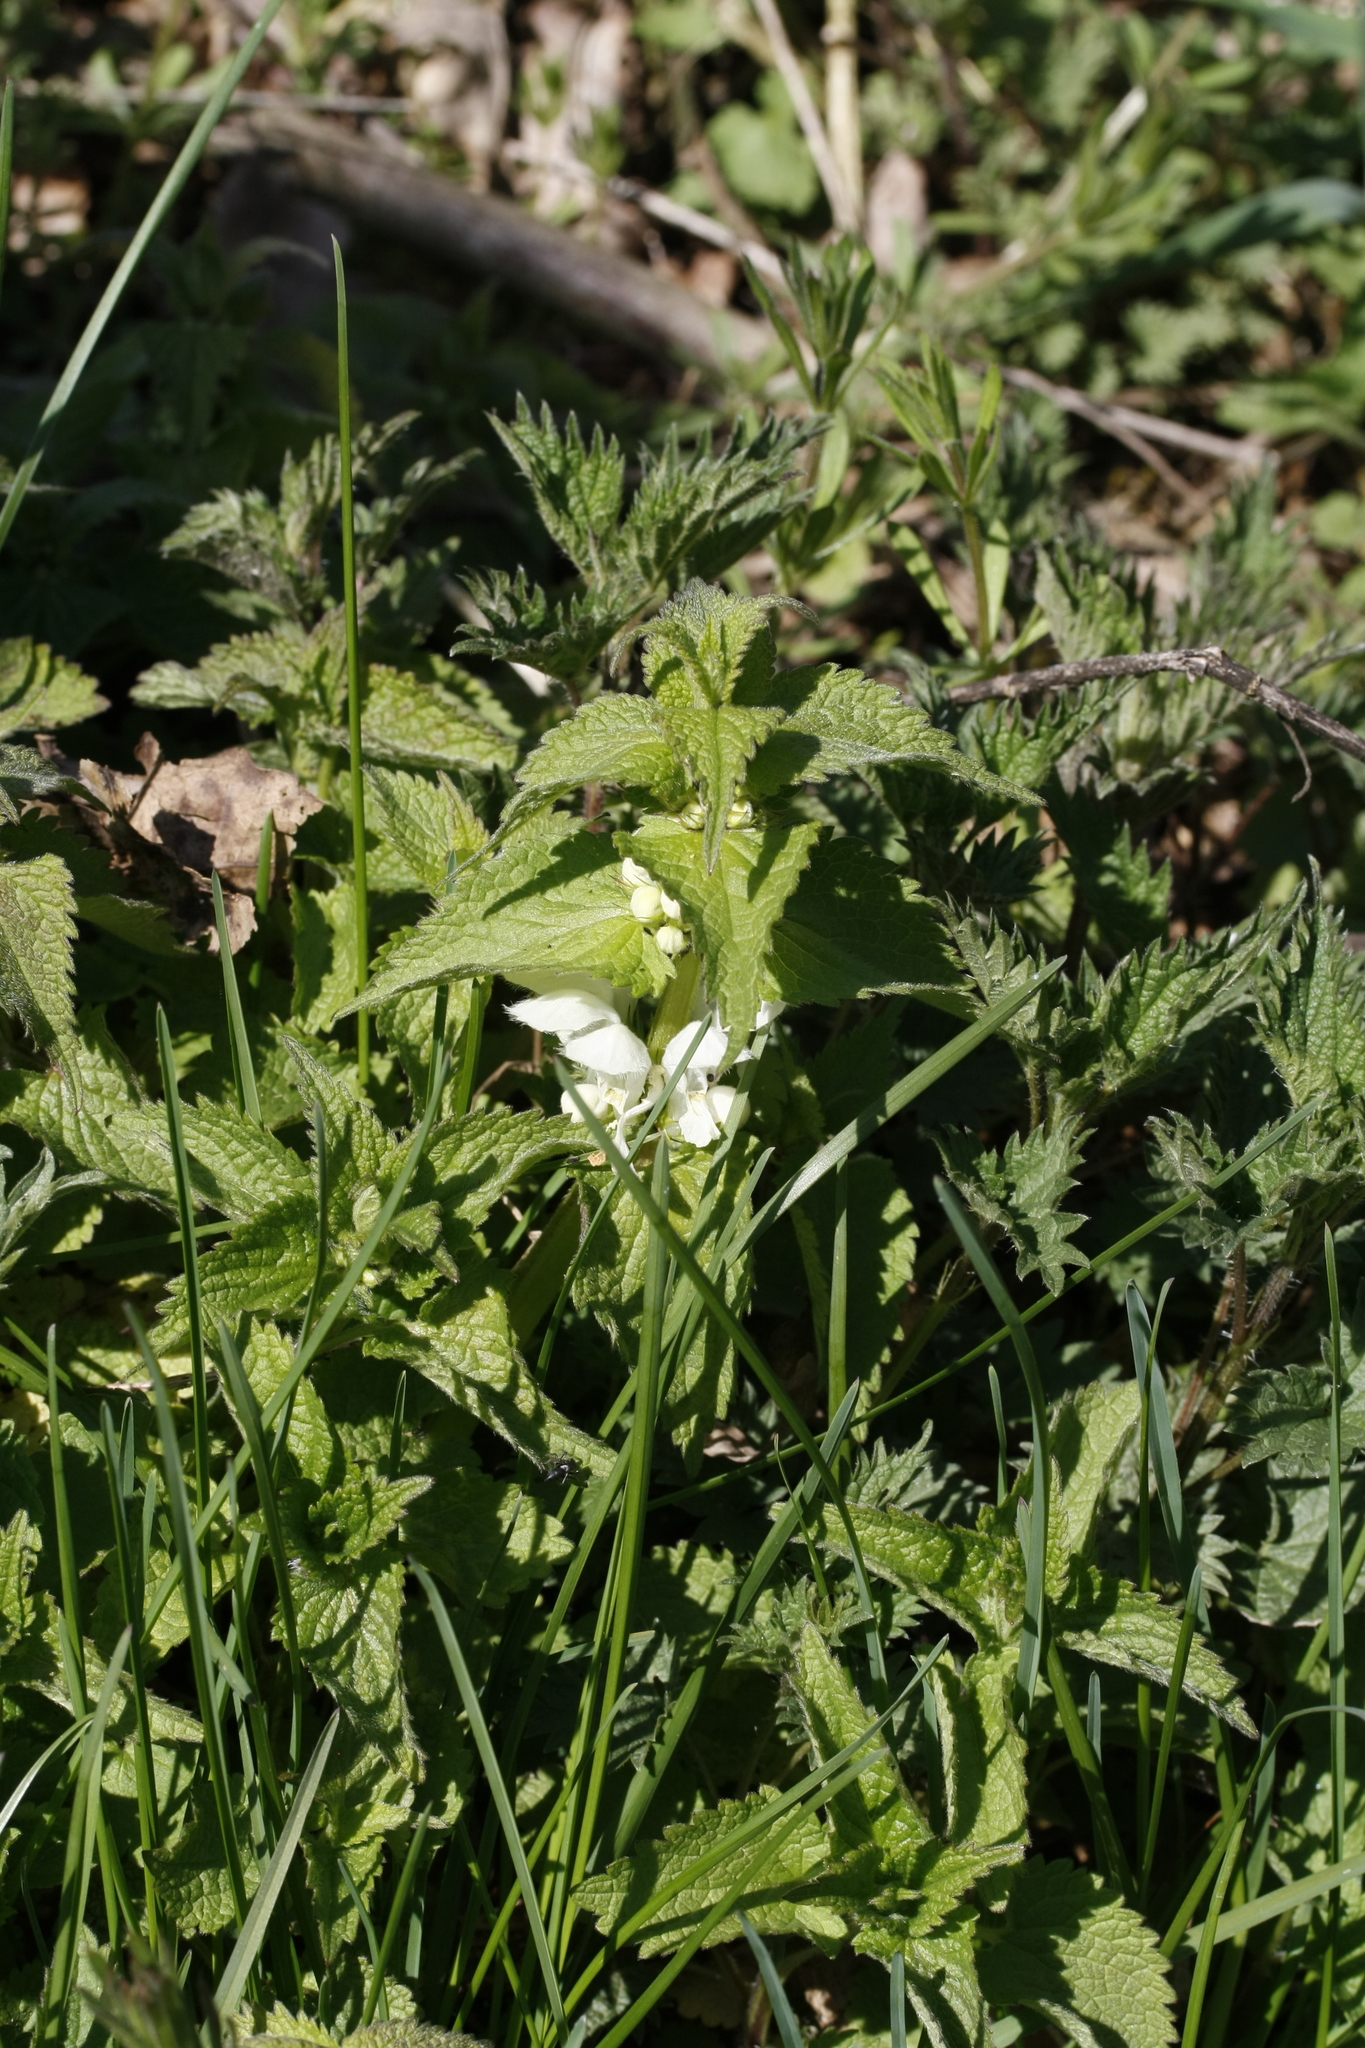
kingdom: Plantae
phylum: Tracheophyta
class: Magnoliopsida
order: Lamiales
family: Lamiaceae
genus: Lamium
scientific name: Lamium album
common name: White dead-nettle
